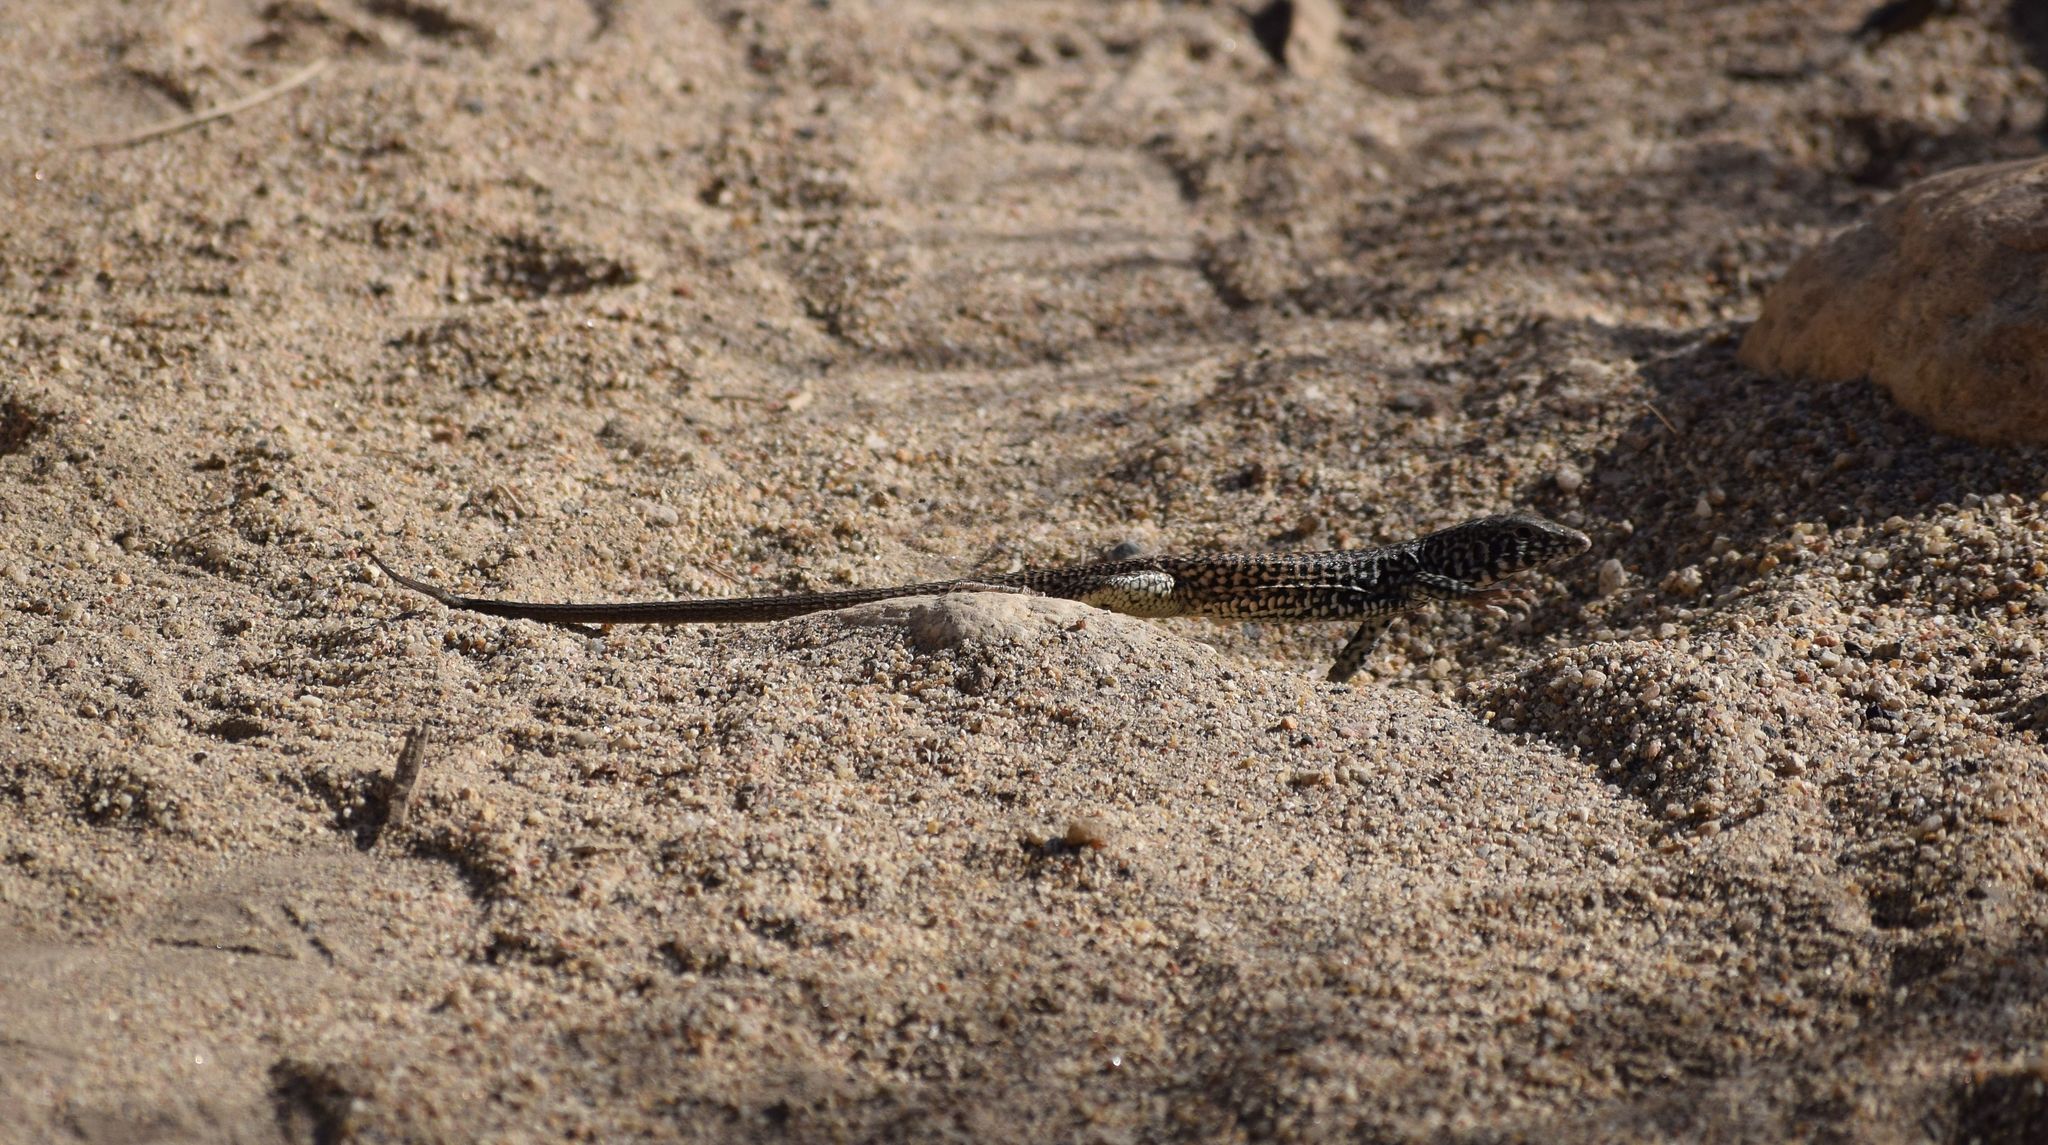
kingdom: Animalia
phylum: Chordata
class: Squamata
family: Teiidae
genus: Aspidoscelis
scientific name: Aspidoscelis tigris
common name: Tiger whiptail
